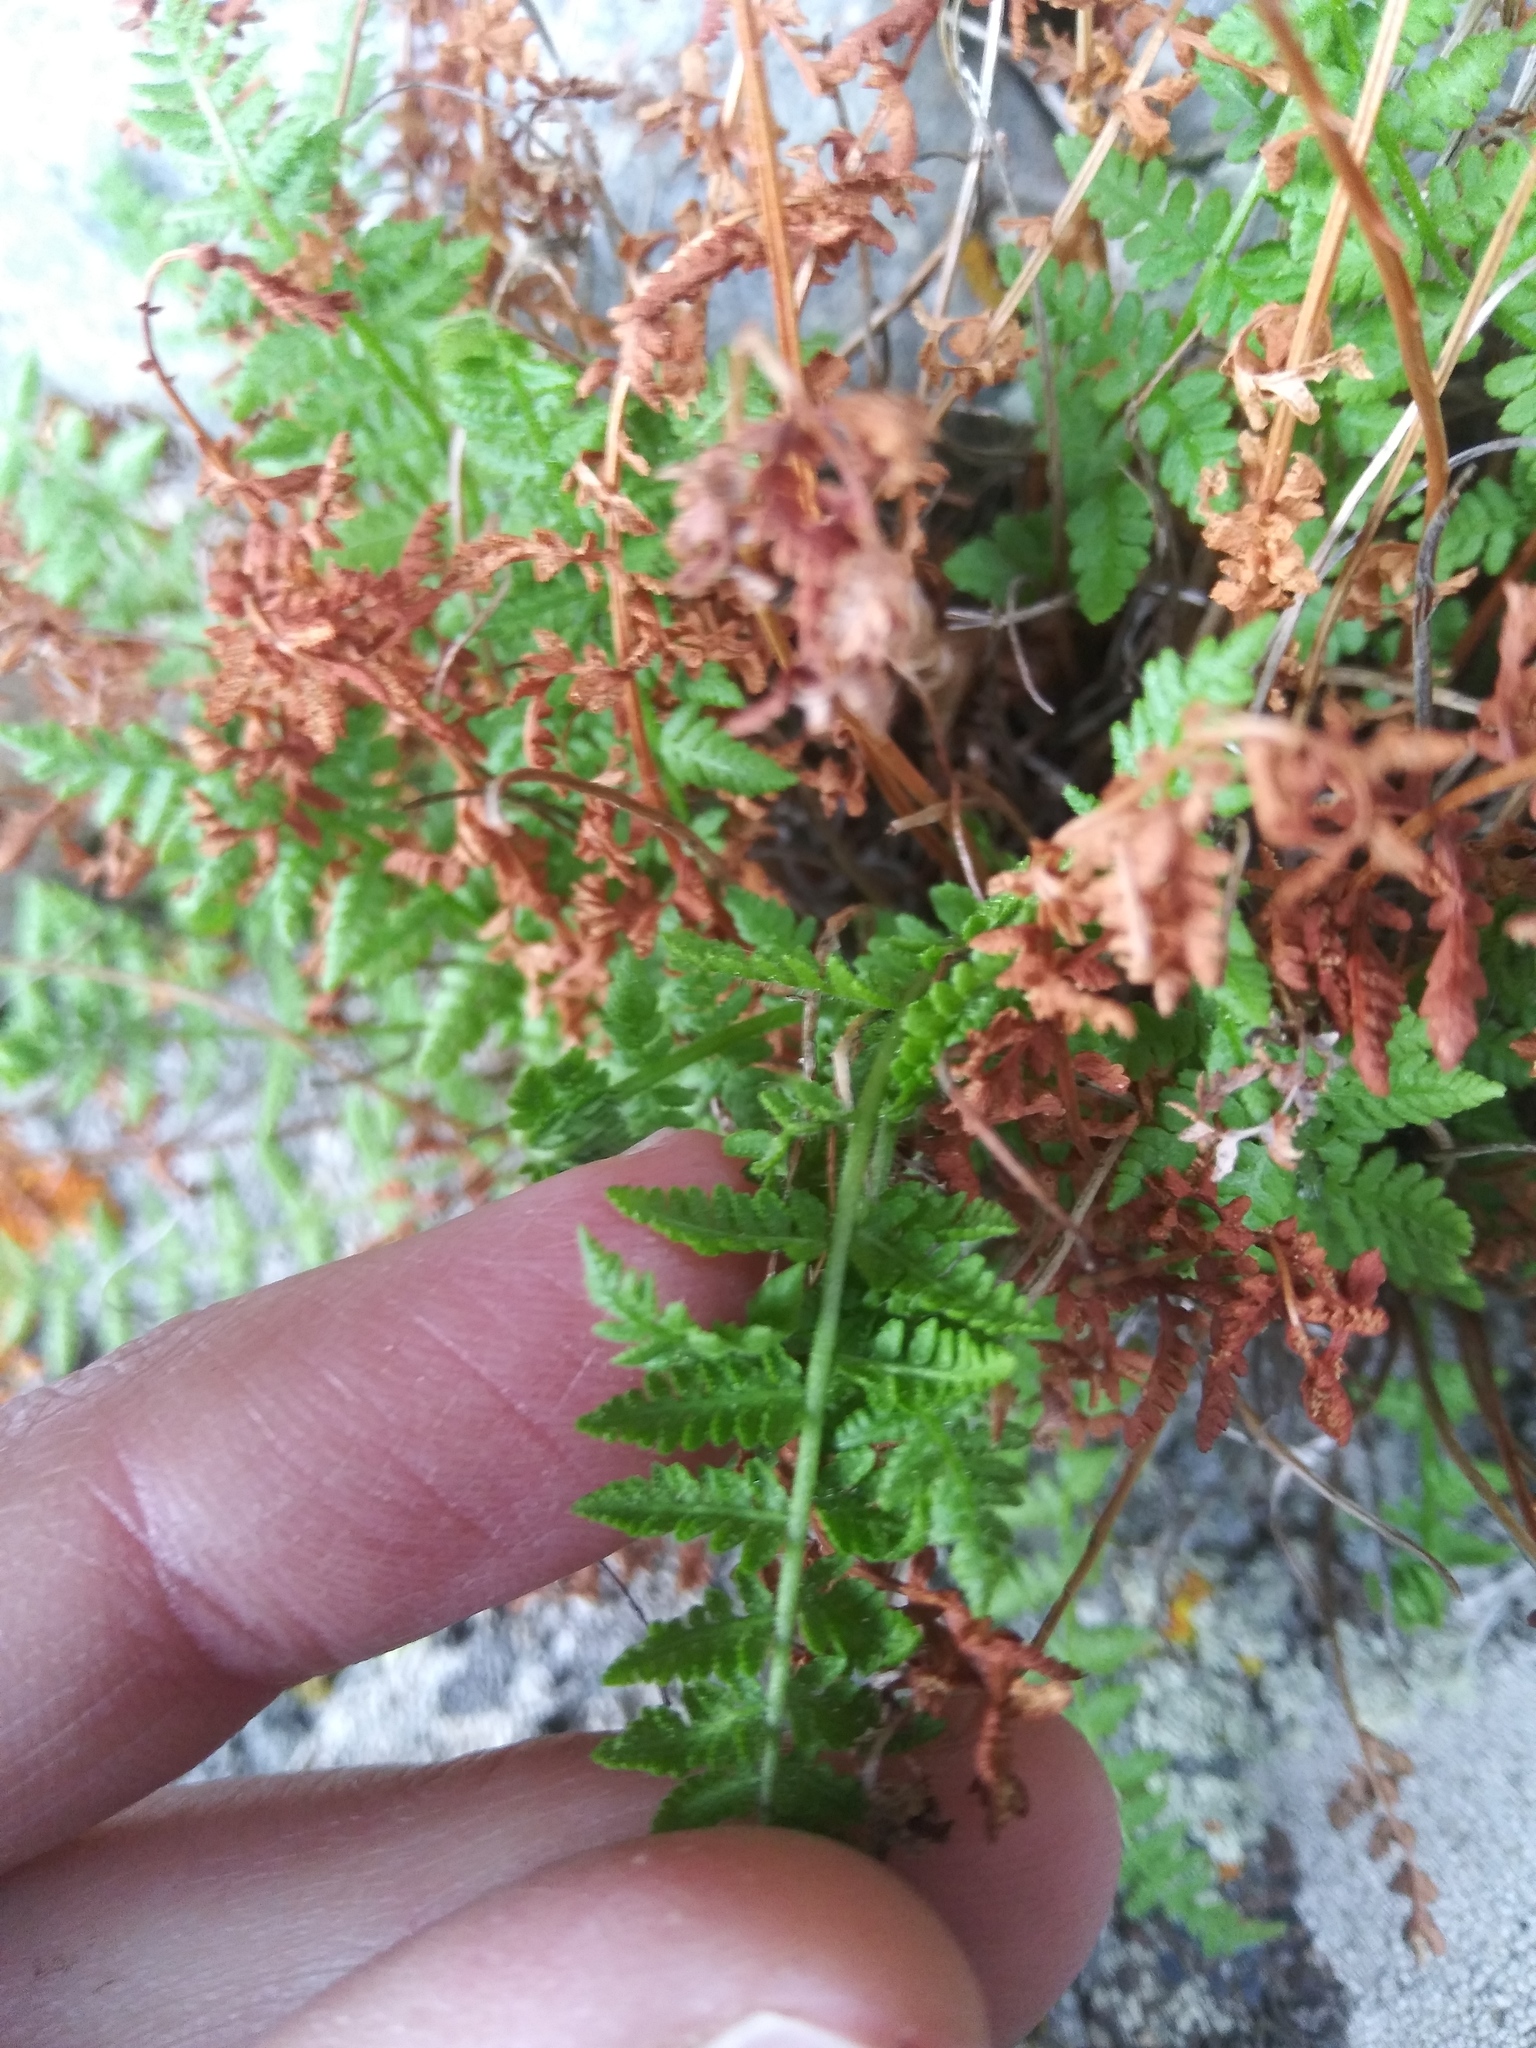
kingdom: Plantae
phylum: Tracheophyta
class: Polypodiopsida
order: Polypodiales
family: Woodsiaceae
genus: Physematium
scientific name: Physematium scopulinum
